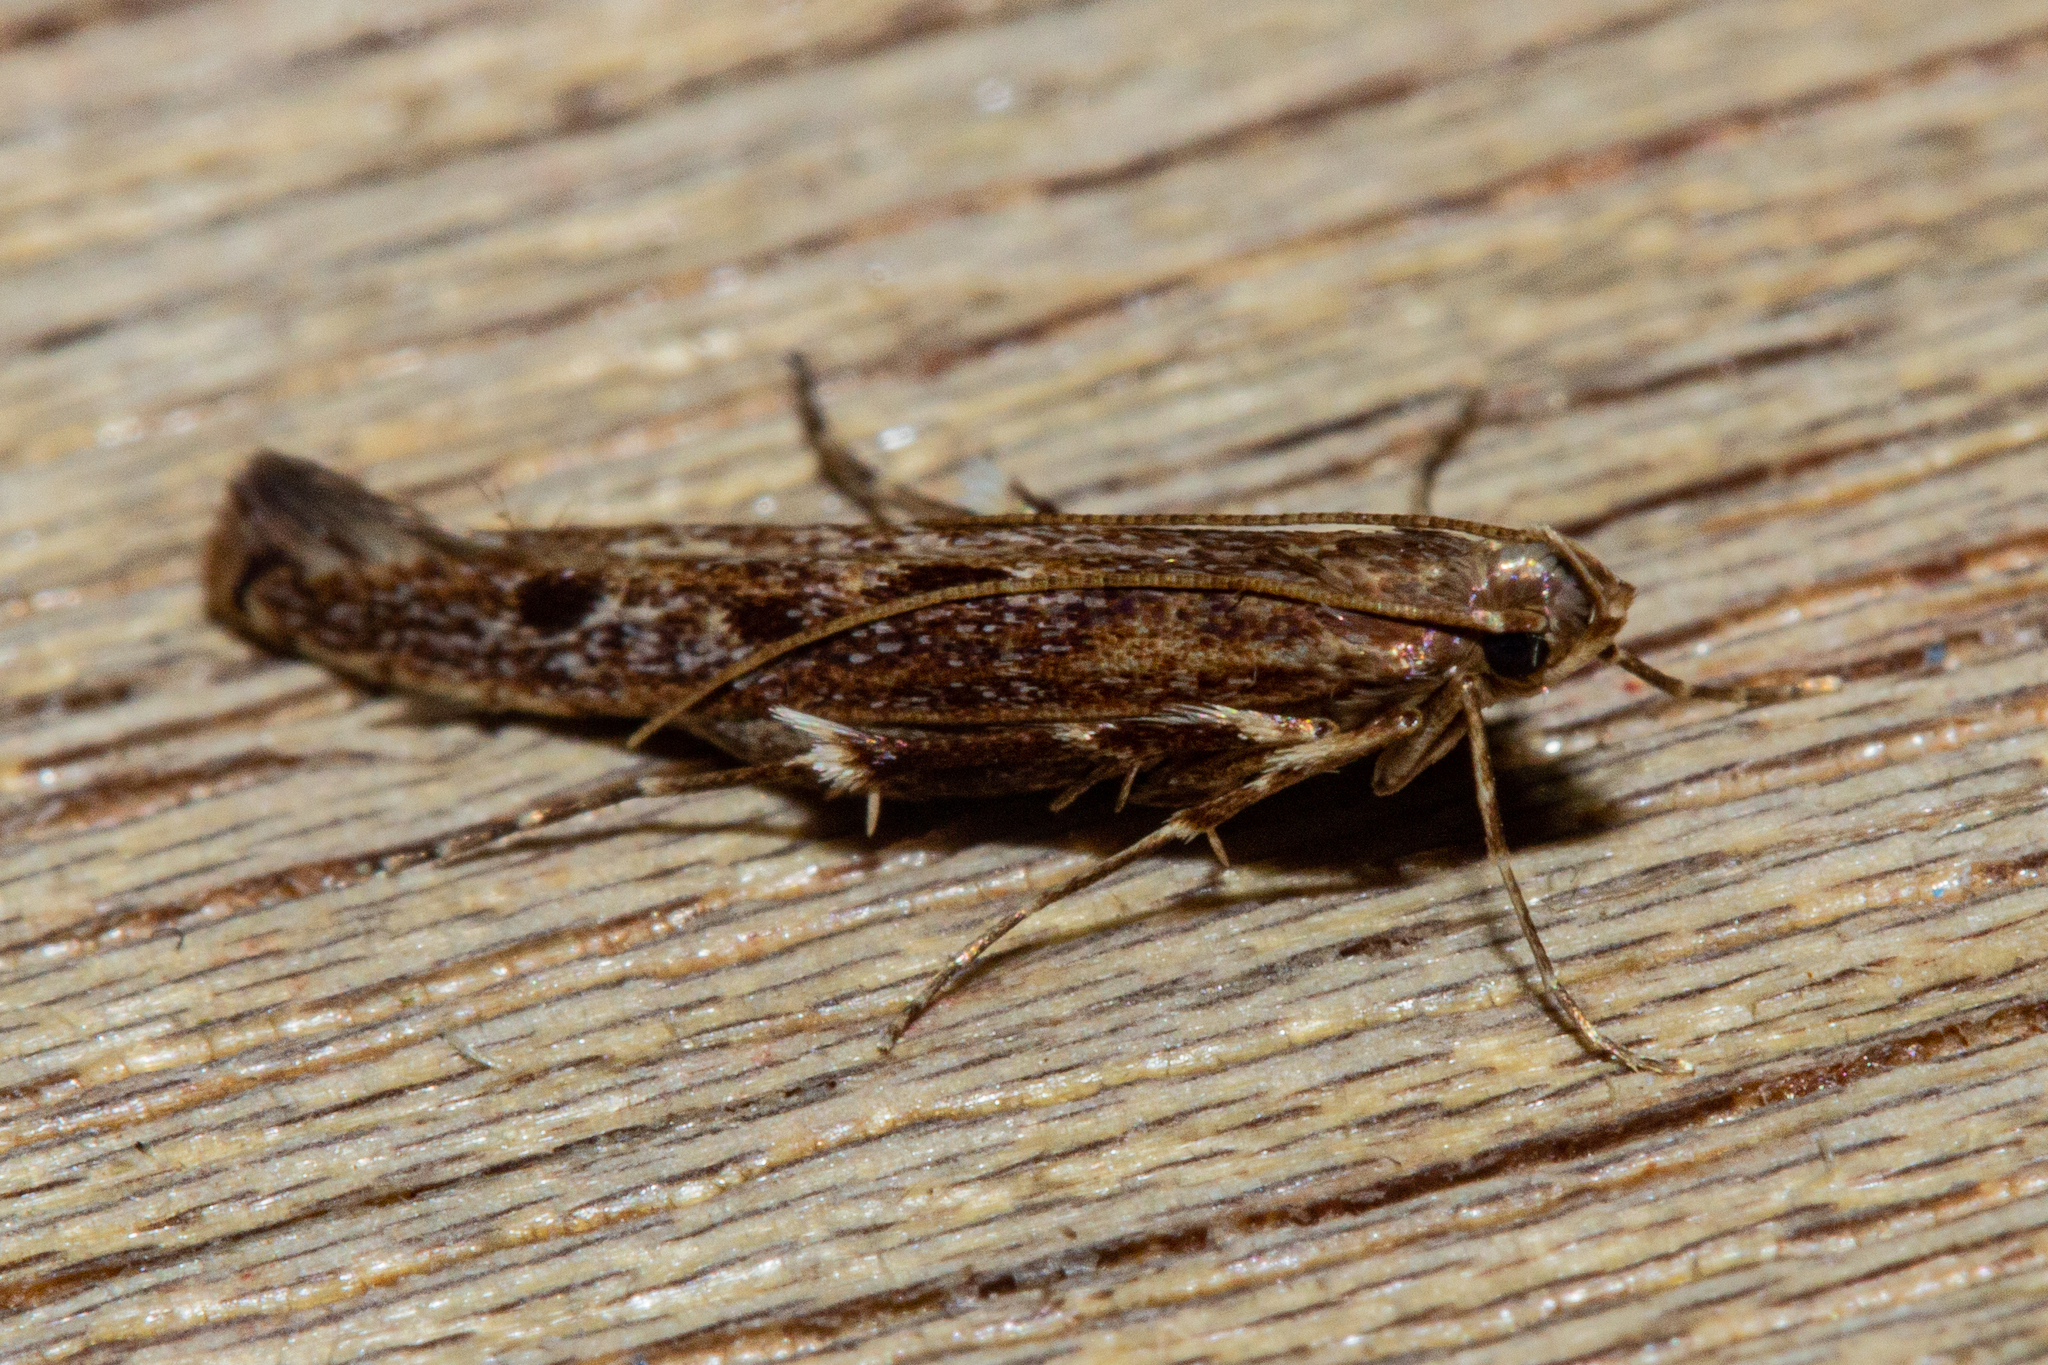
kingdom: Animalia
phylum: Arthropoda
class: Insecta
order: Lepidoptera
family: Batrachedridae
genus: Batrachedra
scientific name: Batrachedra agaura
